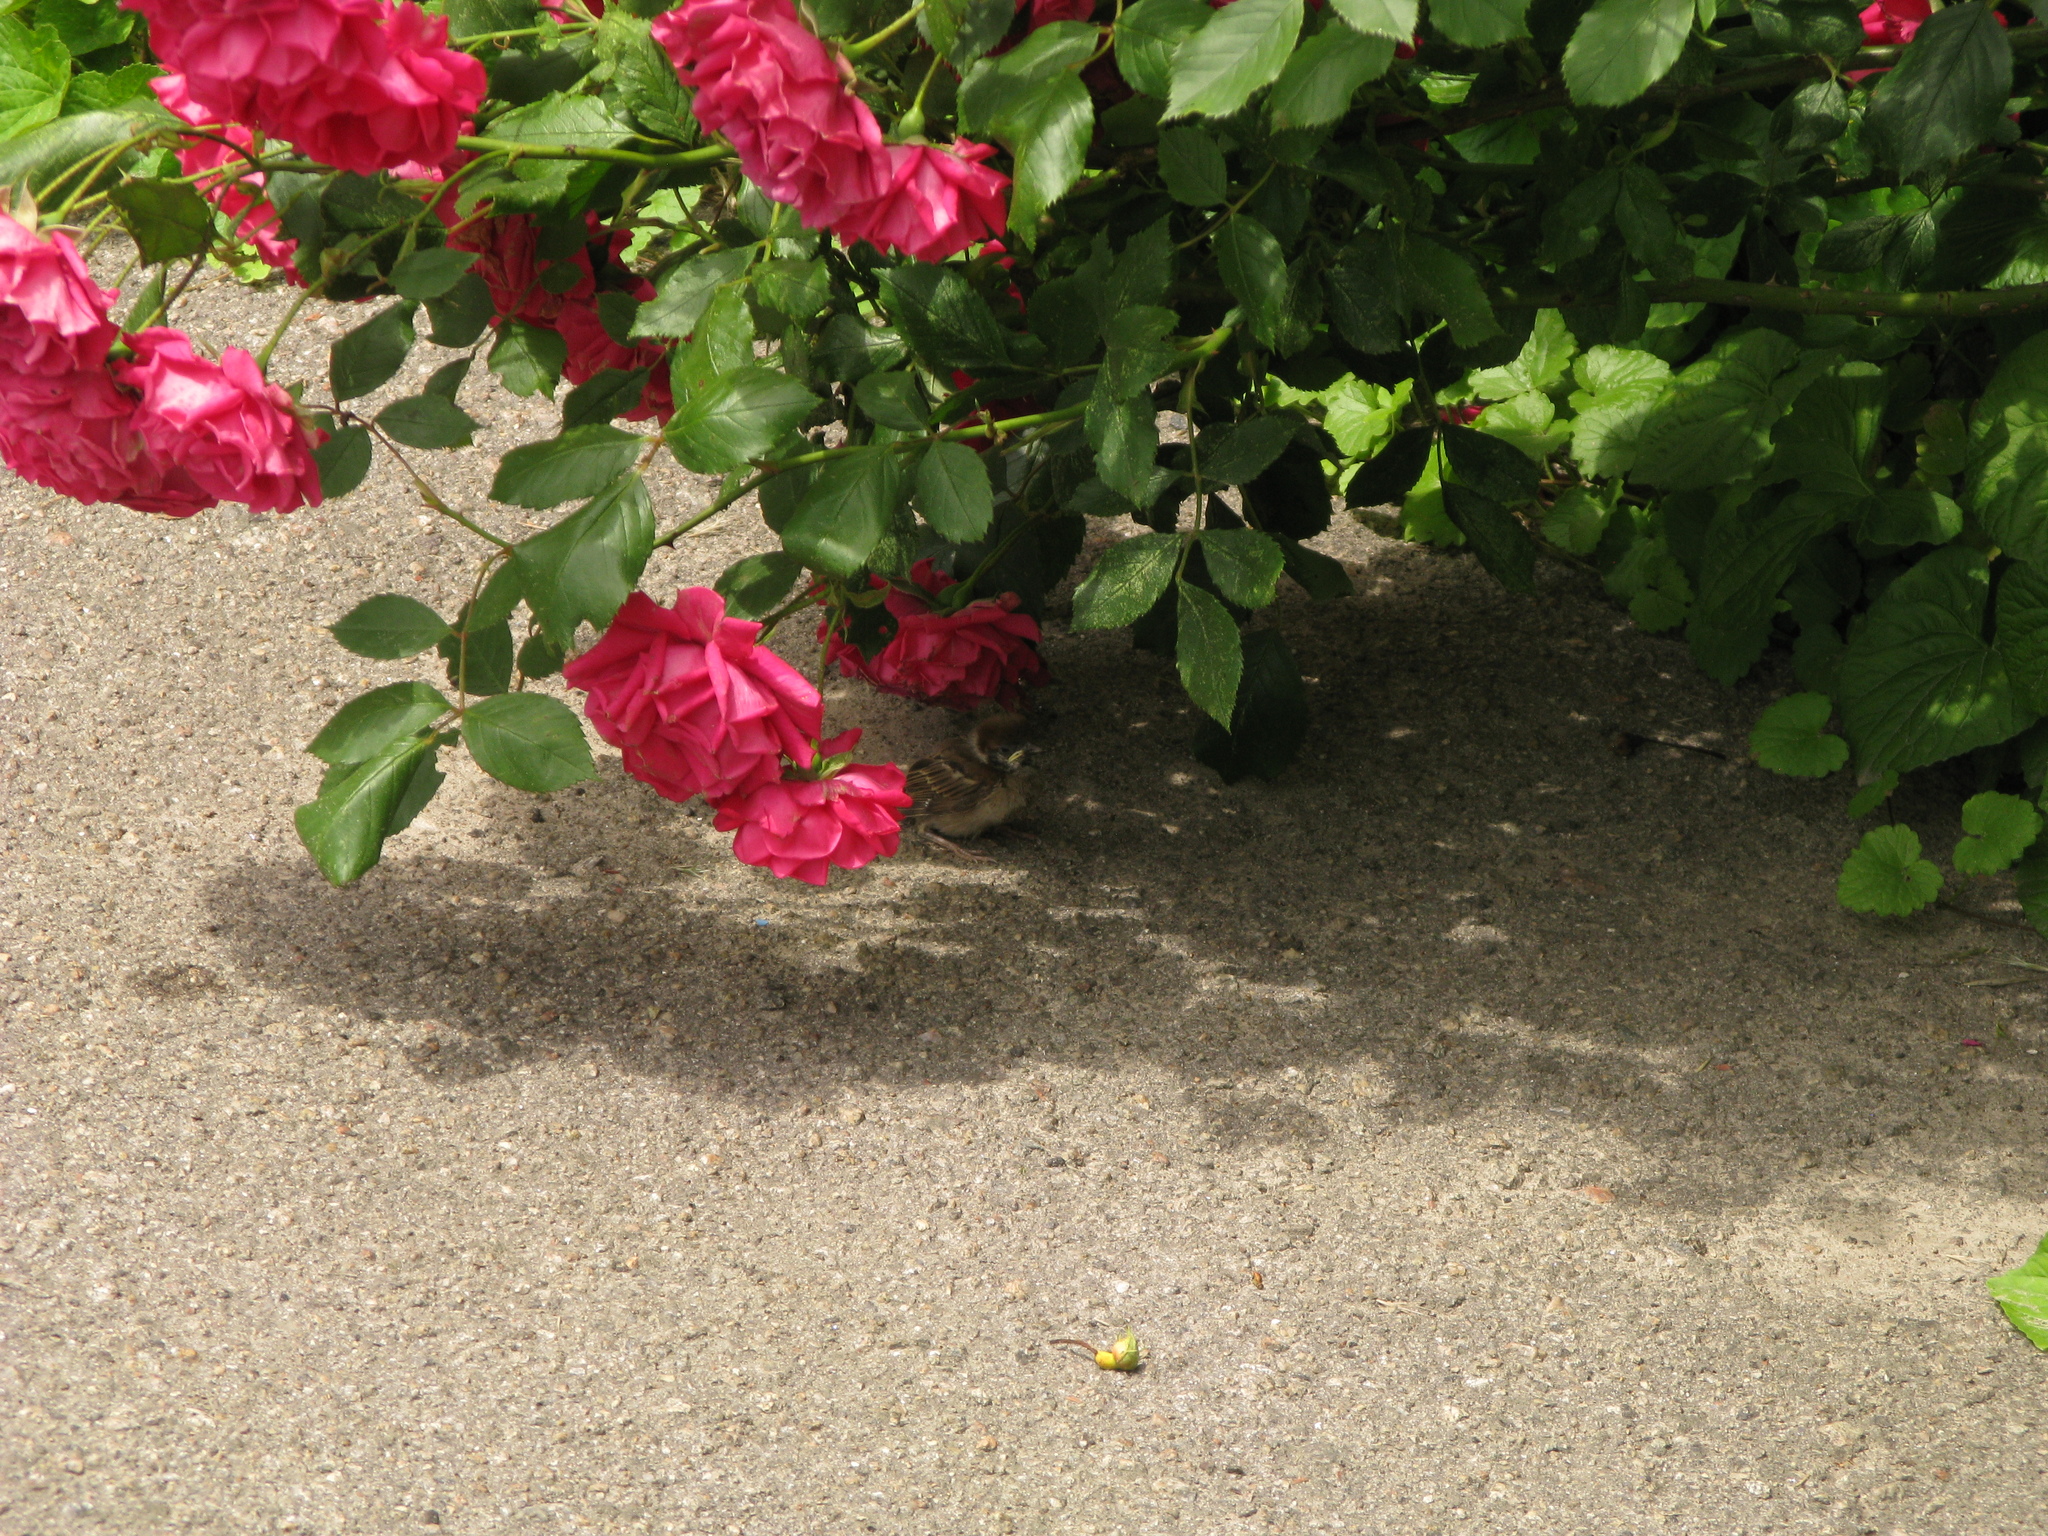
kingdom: Animalia
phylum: Chordata
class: Aves
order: Passeriformes
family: Passeridae
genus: Passer
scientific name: Passer montanus
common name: Eurasian tree sparrow
